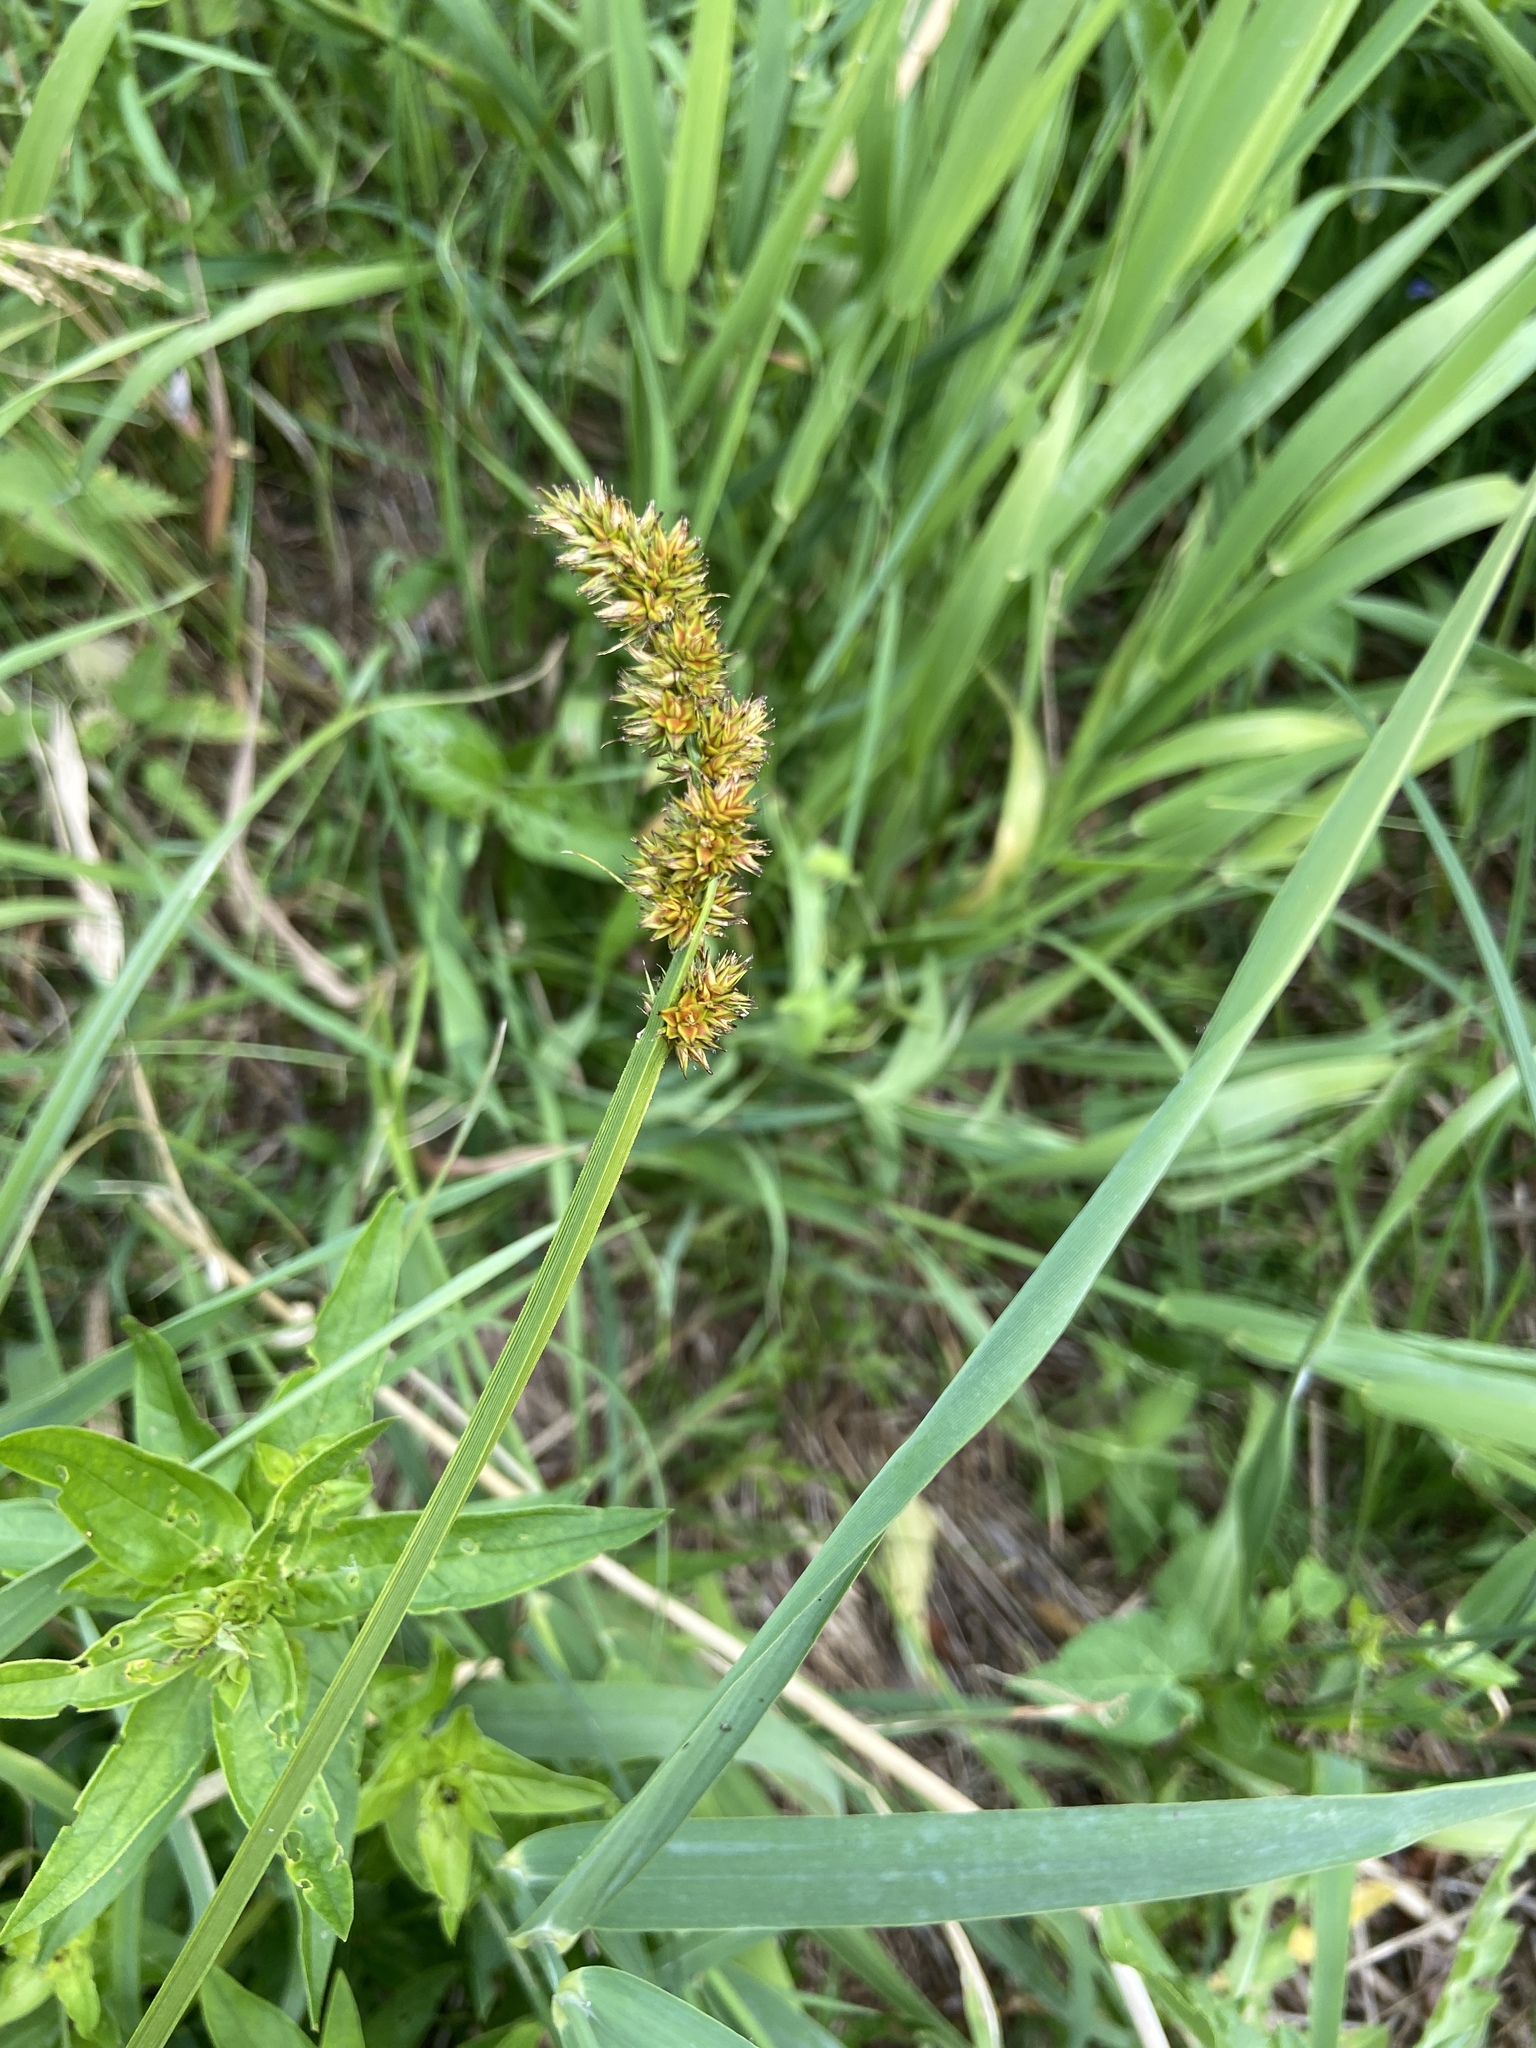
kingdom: Plantae
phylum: Tracheophyta
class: Liliopsida
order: Poales
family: Cyperaceae
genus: Carex
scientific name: Carex vulpina
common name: True fox-sedge
